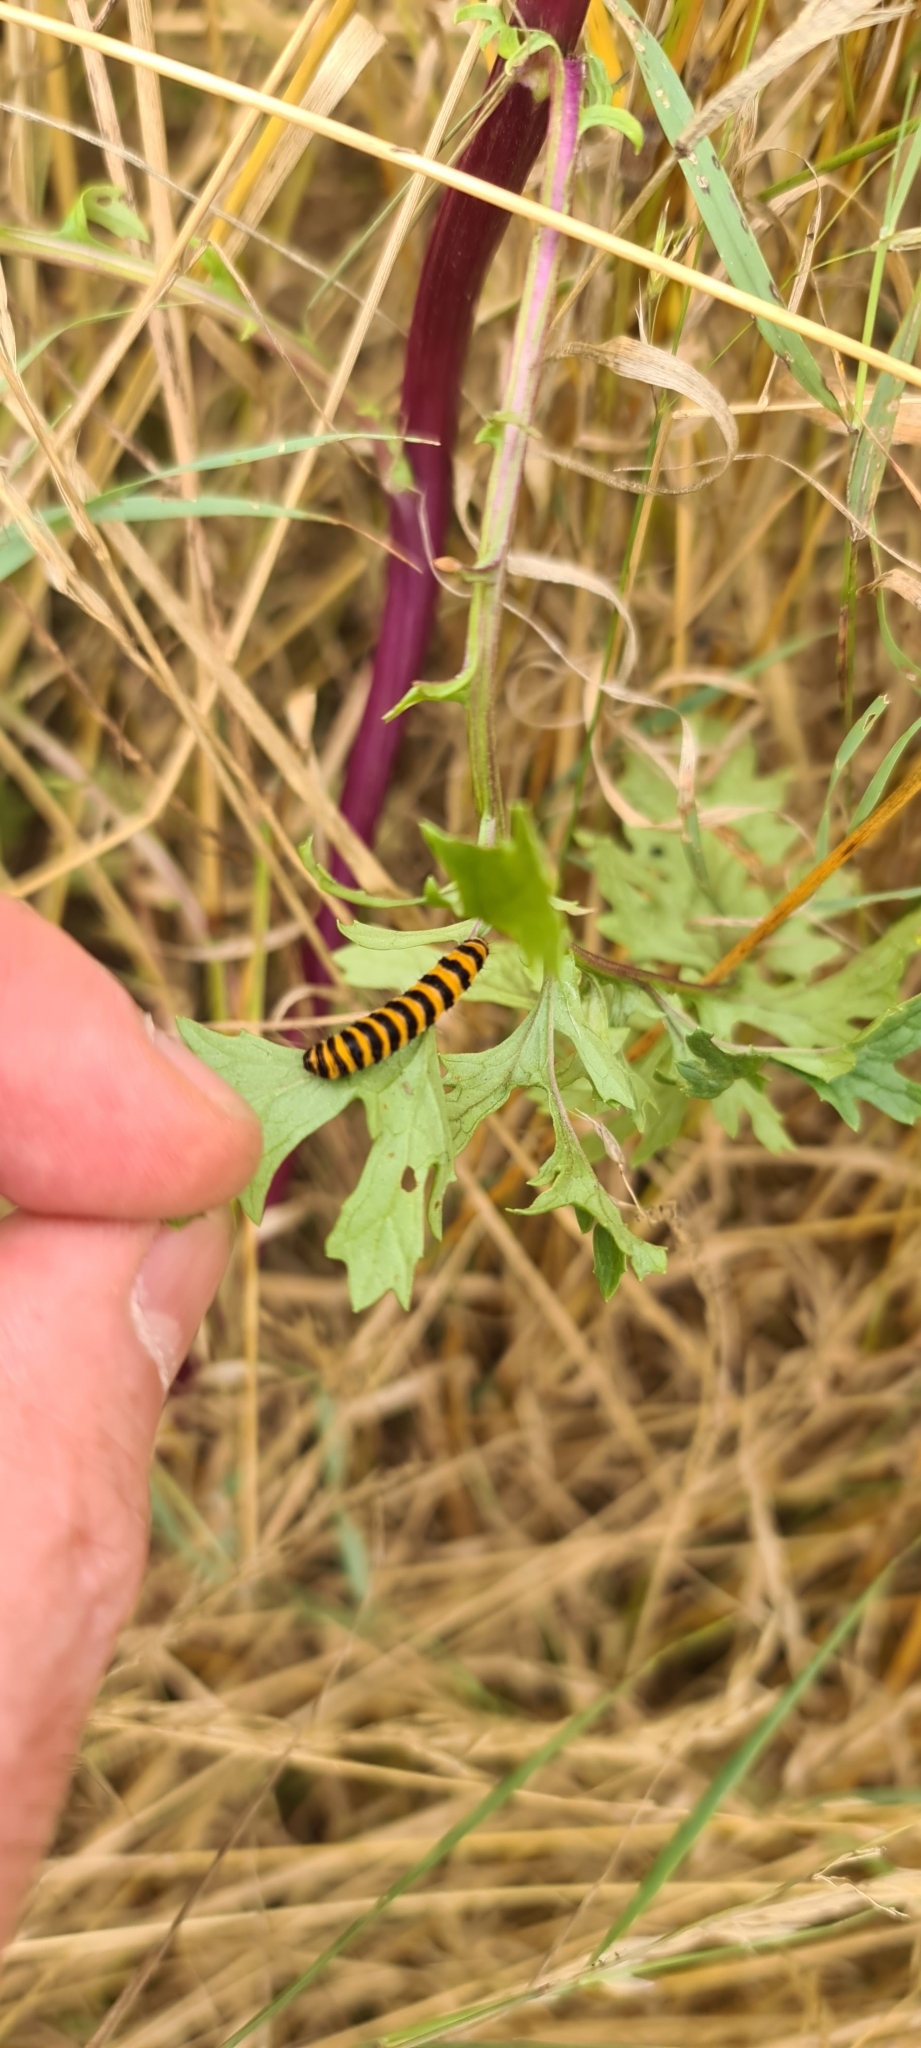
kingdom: Animalia
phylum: Arthropoda
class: Insecta
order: Lepidoptera
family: Erebidae
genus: Tyria
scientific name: Tyria jacobaeae
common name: Cinnabar
